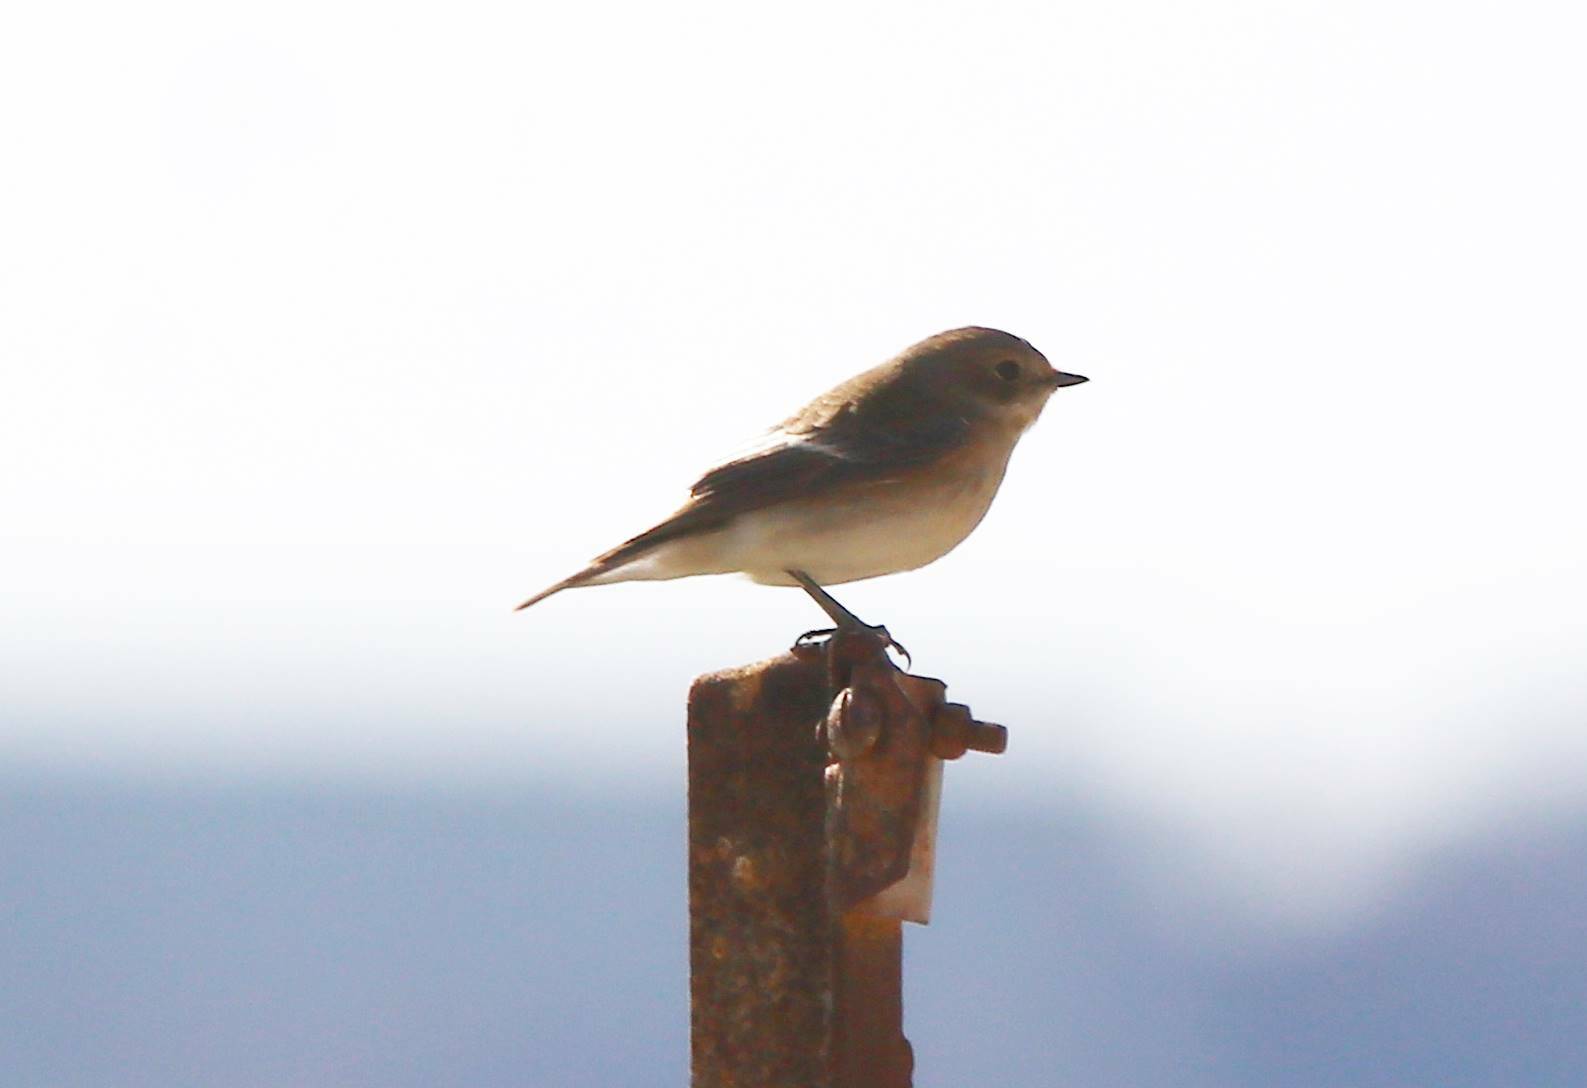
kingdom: Animalia
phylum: Chordata
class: Aves
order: Passeriformes
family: Muscicapidae
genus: Ficedula
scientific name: Ficedula hypoleuca
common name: European pied flycatcher
